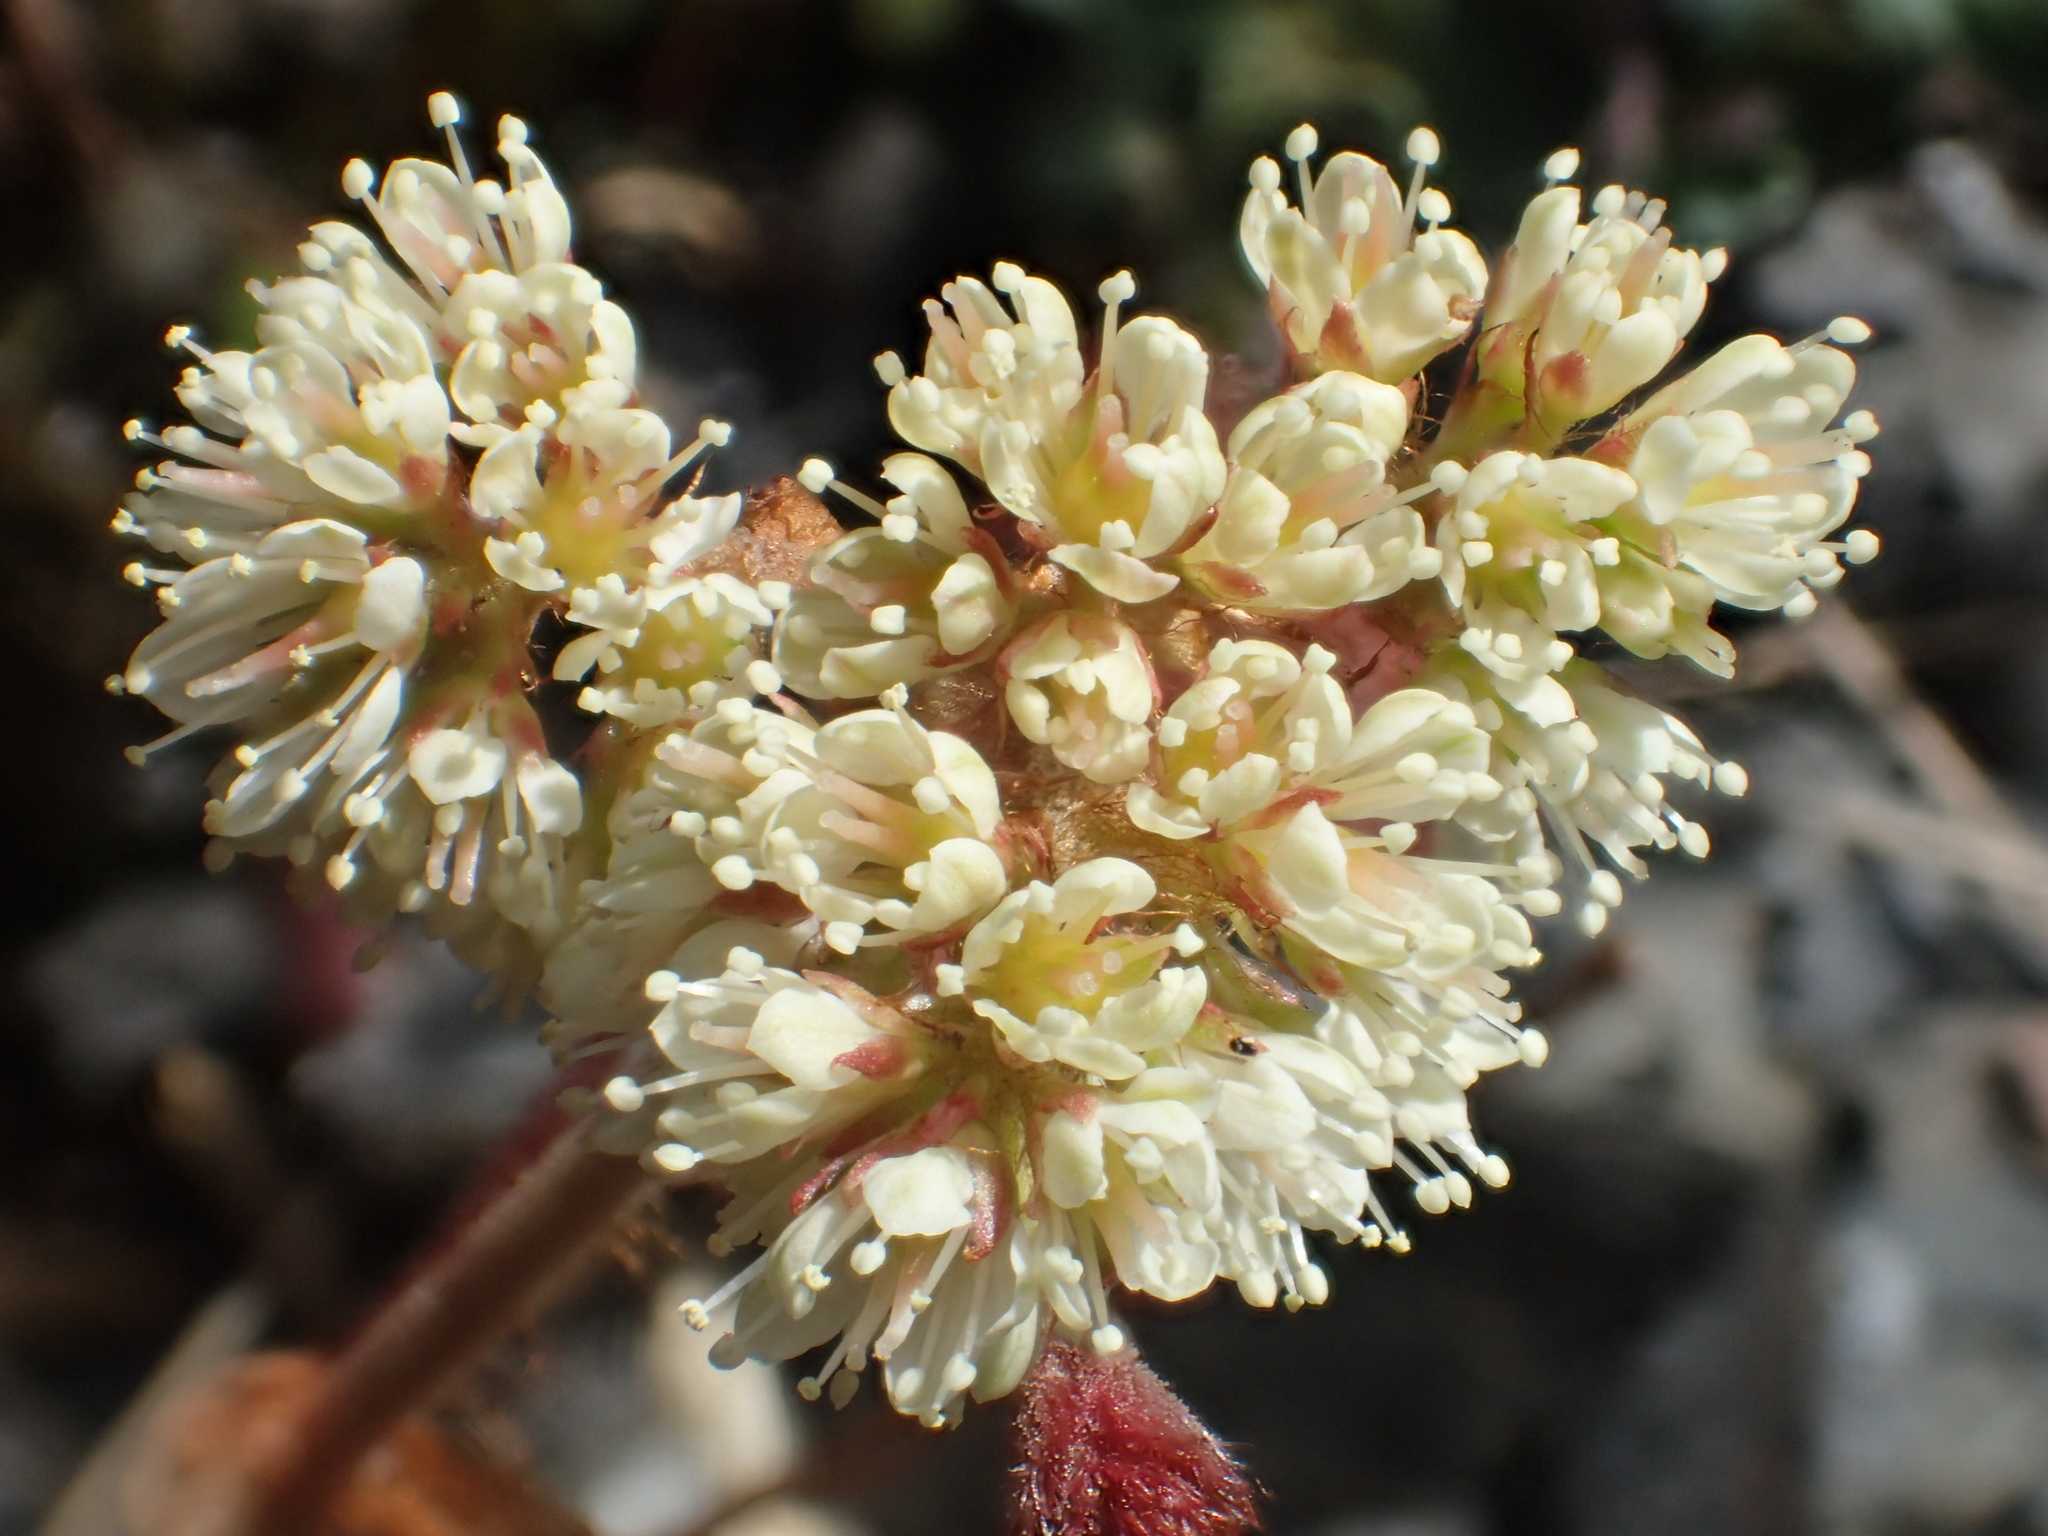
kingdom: Plantae
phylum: Tracheophyta
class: Magnoliopsida
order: Saxifragales
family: Saxifragaceae
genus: Astilbe
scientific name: Astilbe macroflora
